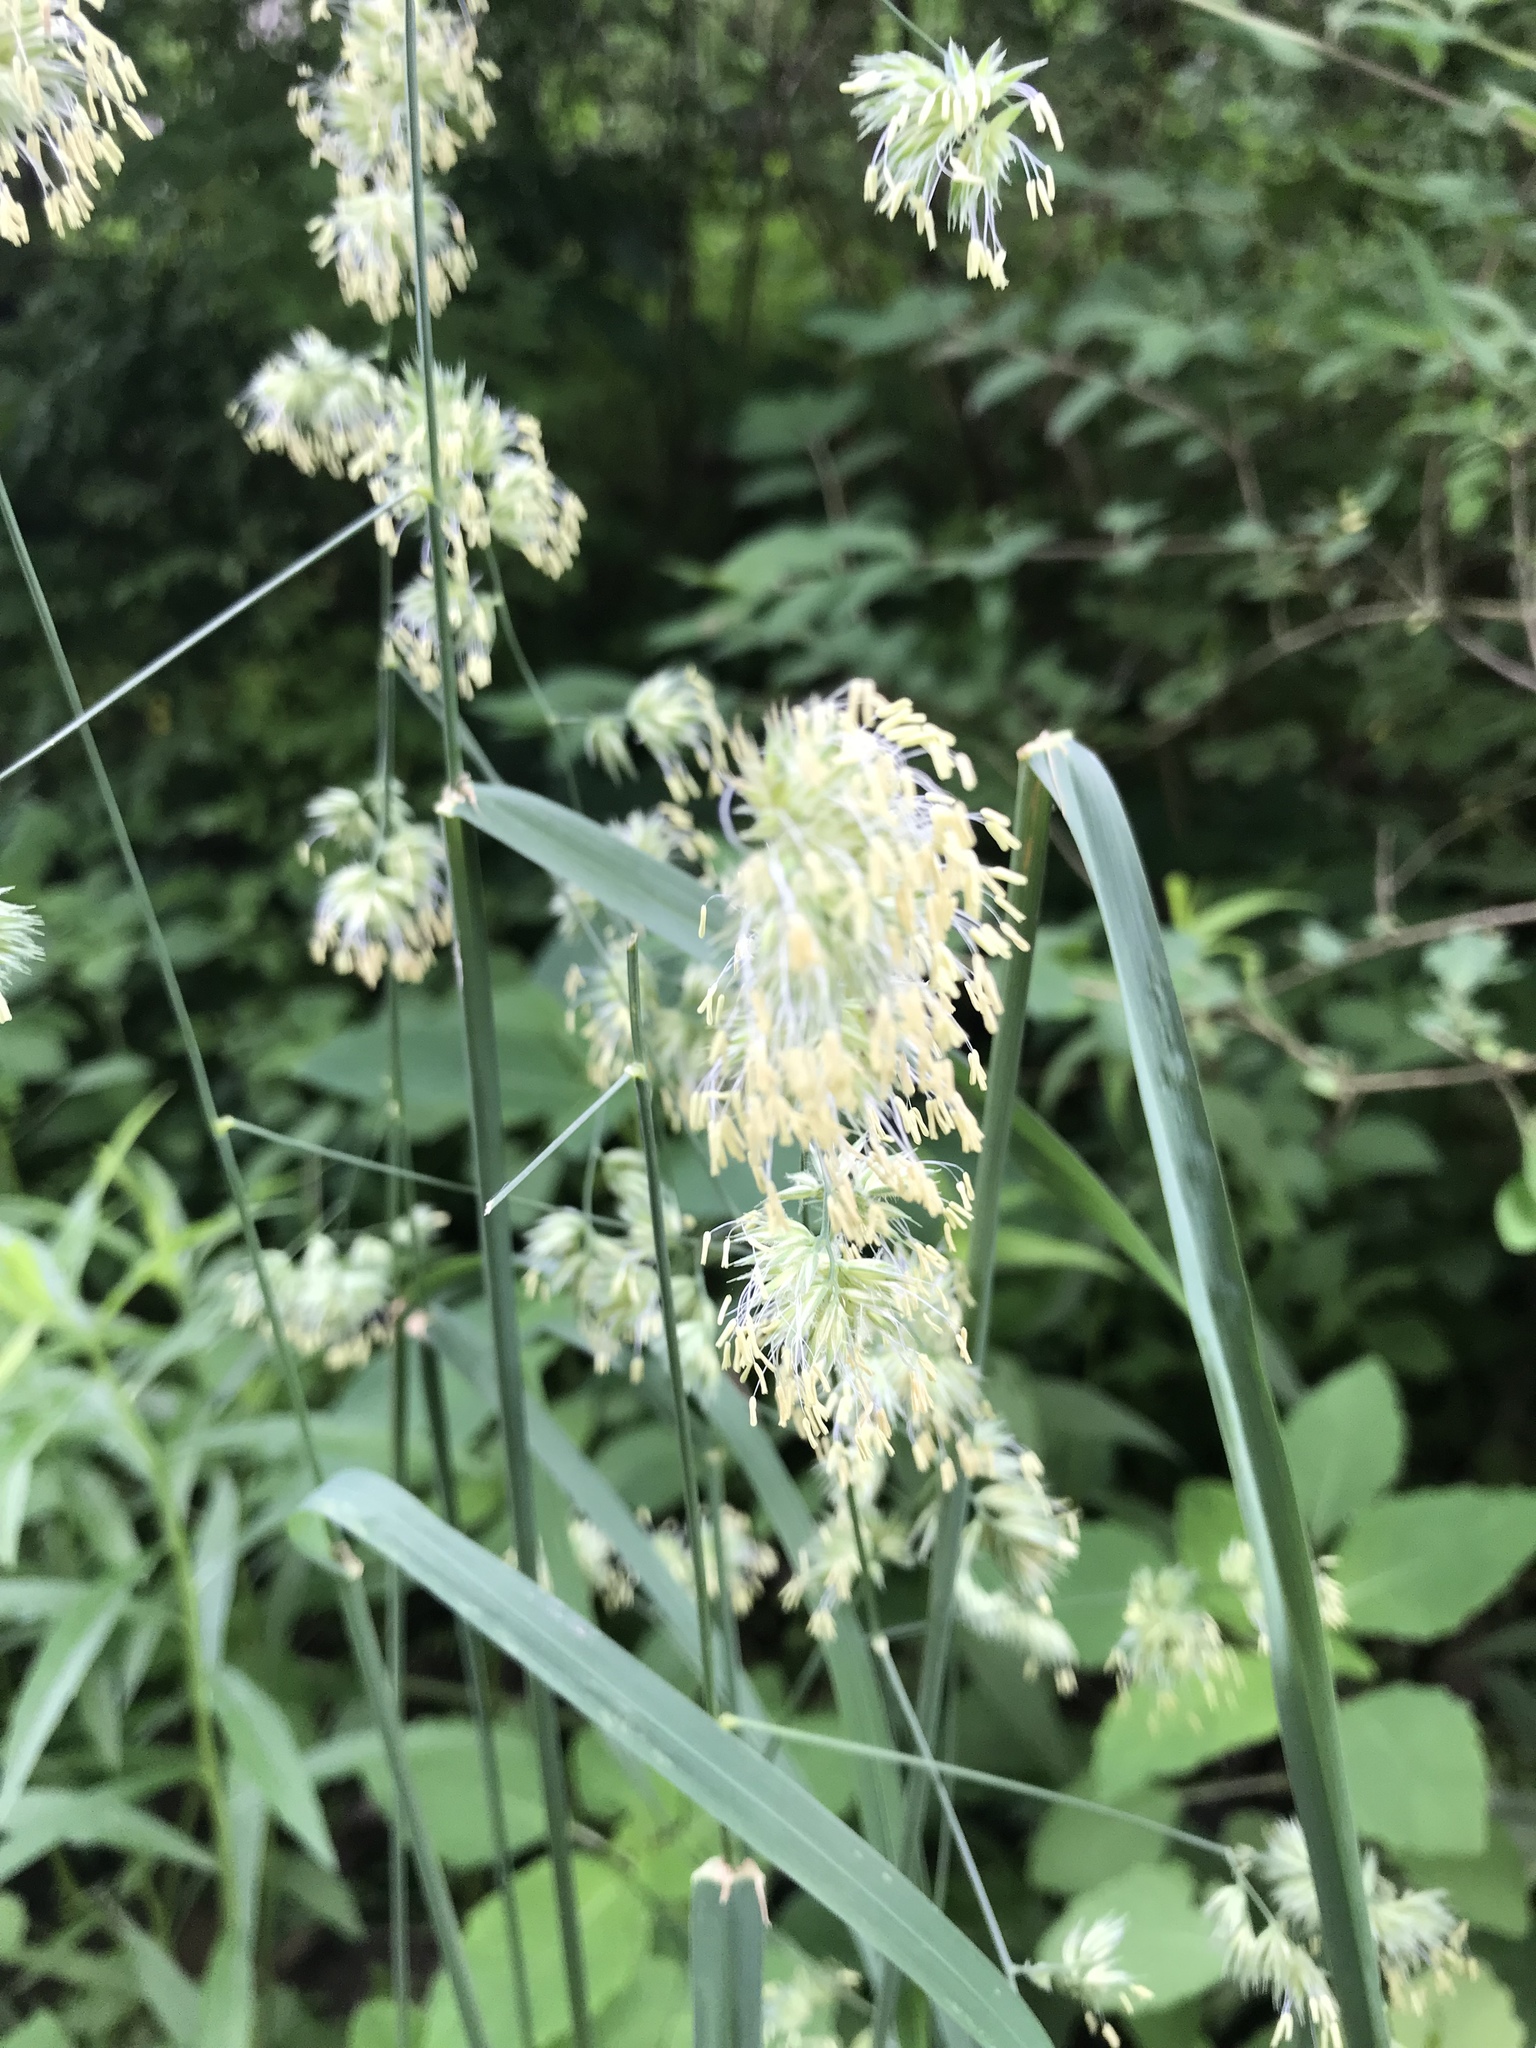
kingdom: Plantae
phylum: Tracheophyta
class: Liliopsida
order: Poales
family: Poaceae
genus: Dactylis
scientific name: Dactylis glomerata
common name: Orchardgrass
